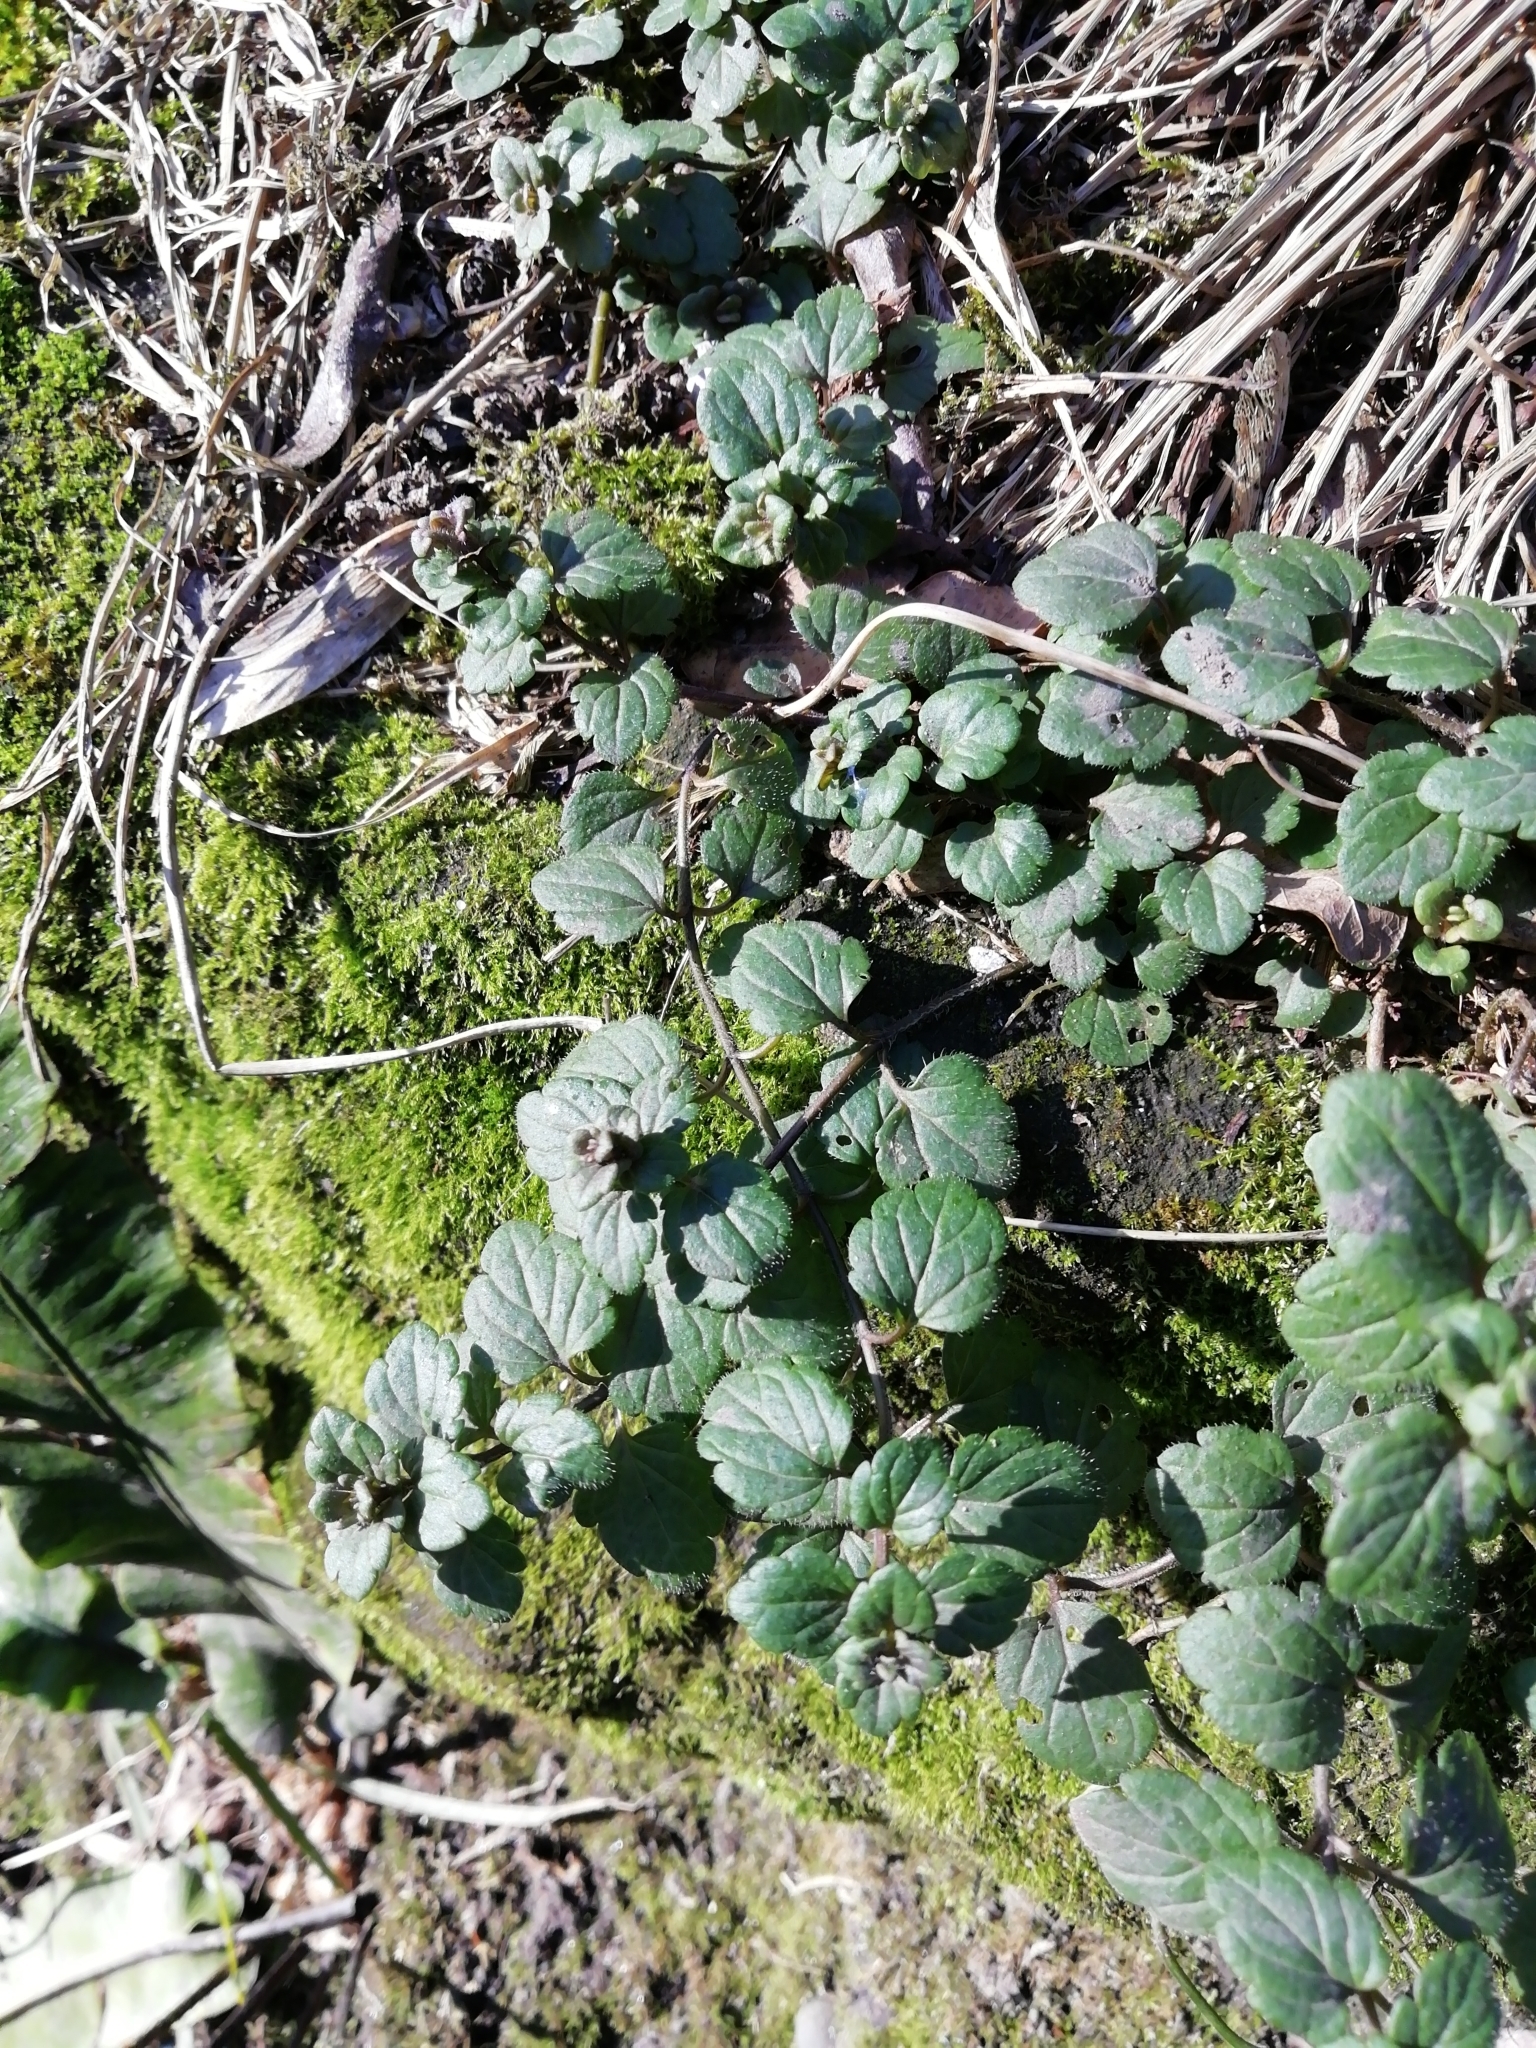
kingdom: Plantae
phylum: Tracheophyta
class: Magnoliopsida
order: Lamiales
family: Plantaginaceae
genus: Veronica
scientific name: Veronica persica
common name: Common field-speedwell
